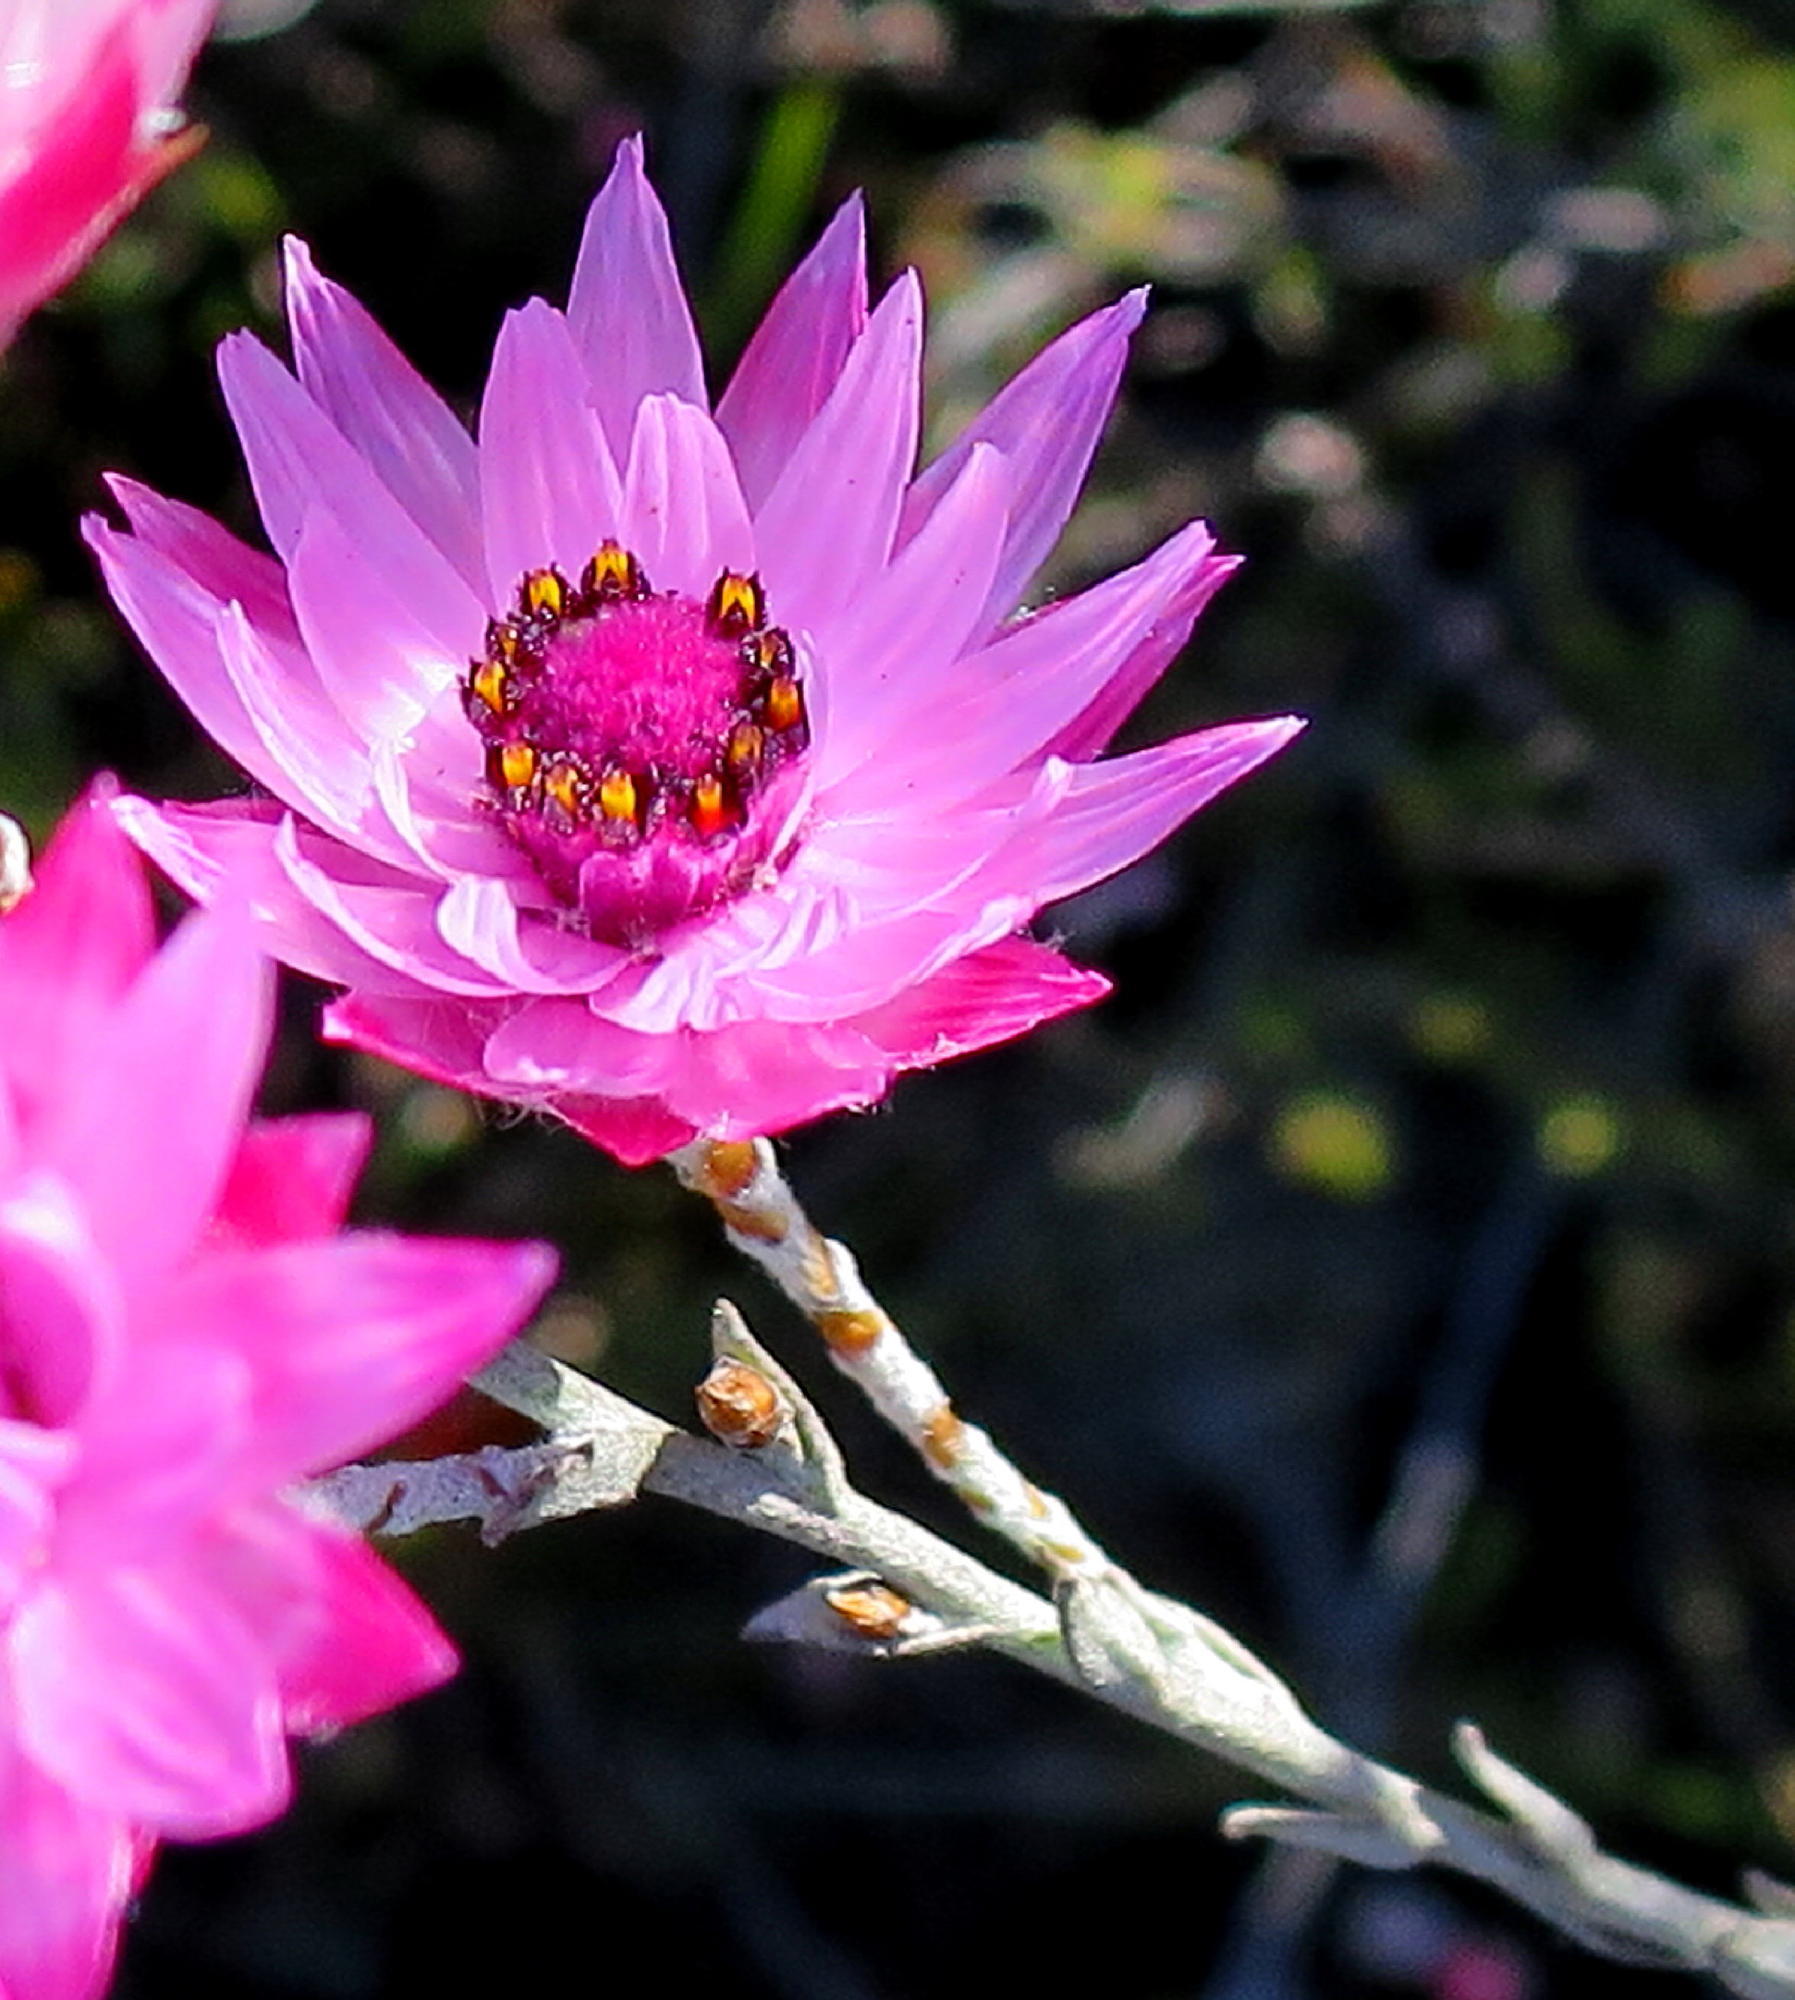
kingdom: Plantae
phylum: Tracheophyta
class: Magnoliopsida
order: Asterales
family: Asteraceae
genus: Syncarpha
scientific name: Syncarpha canescens
